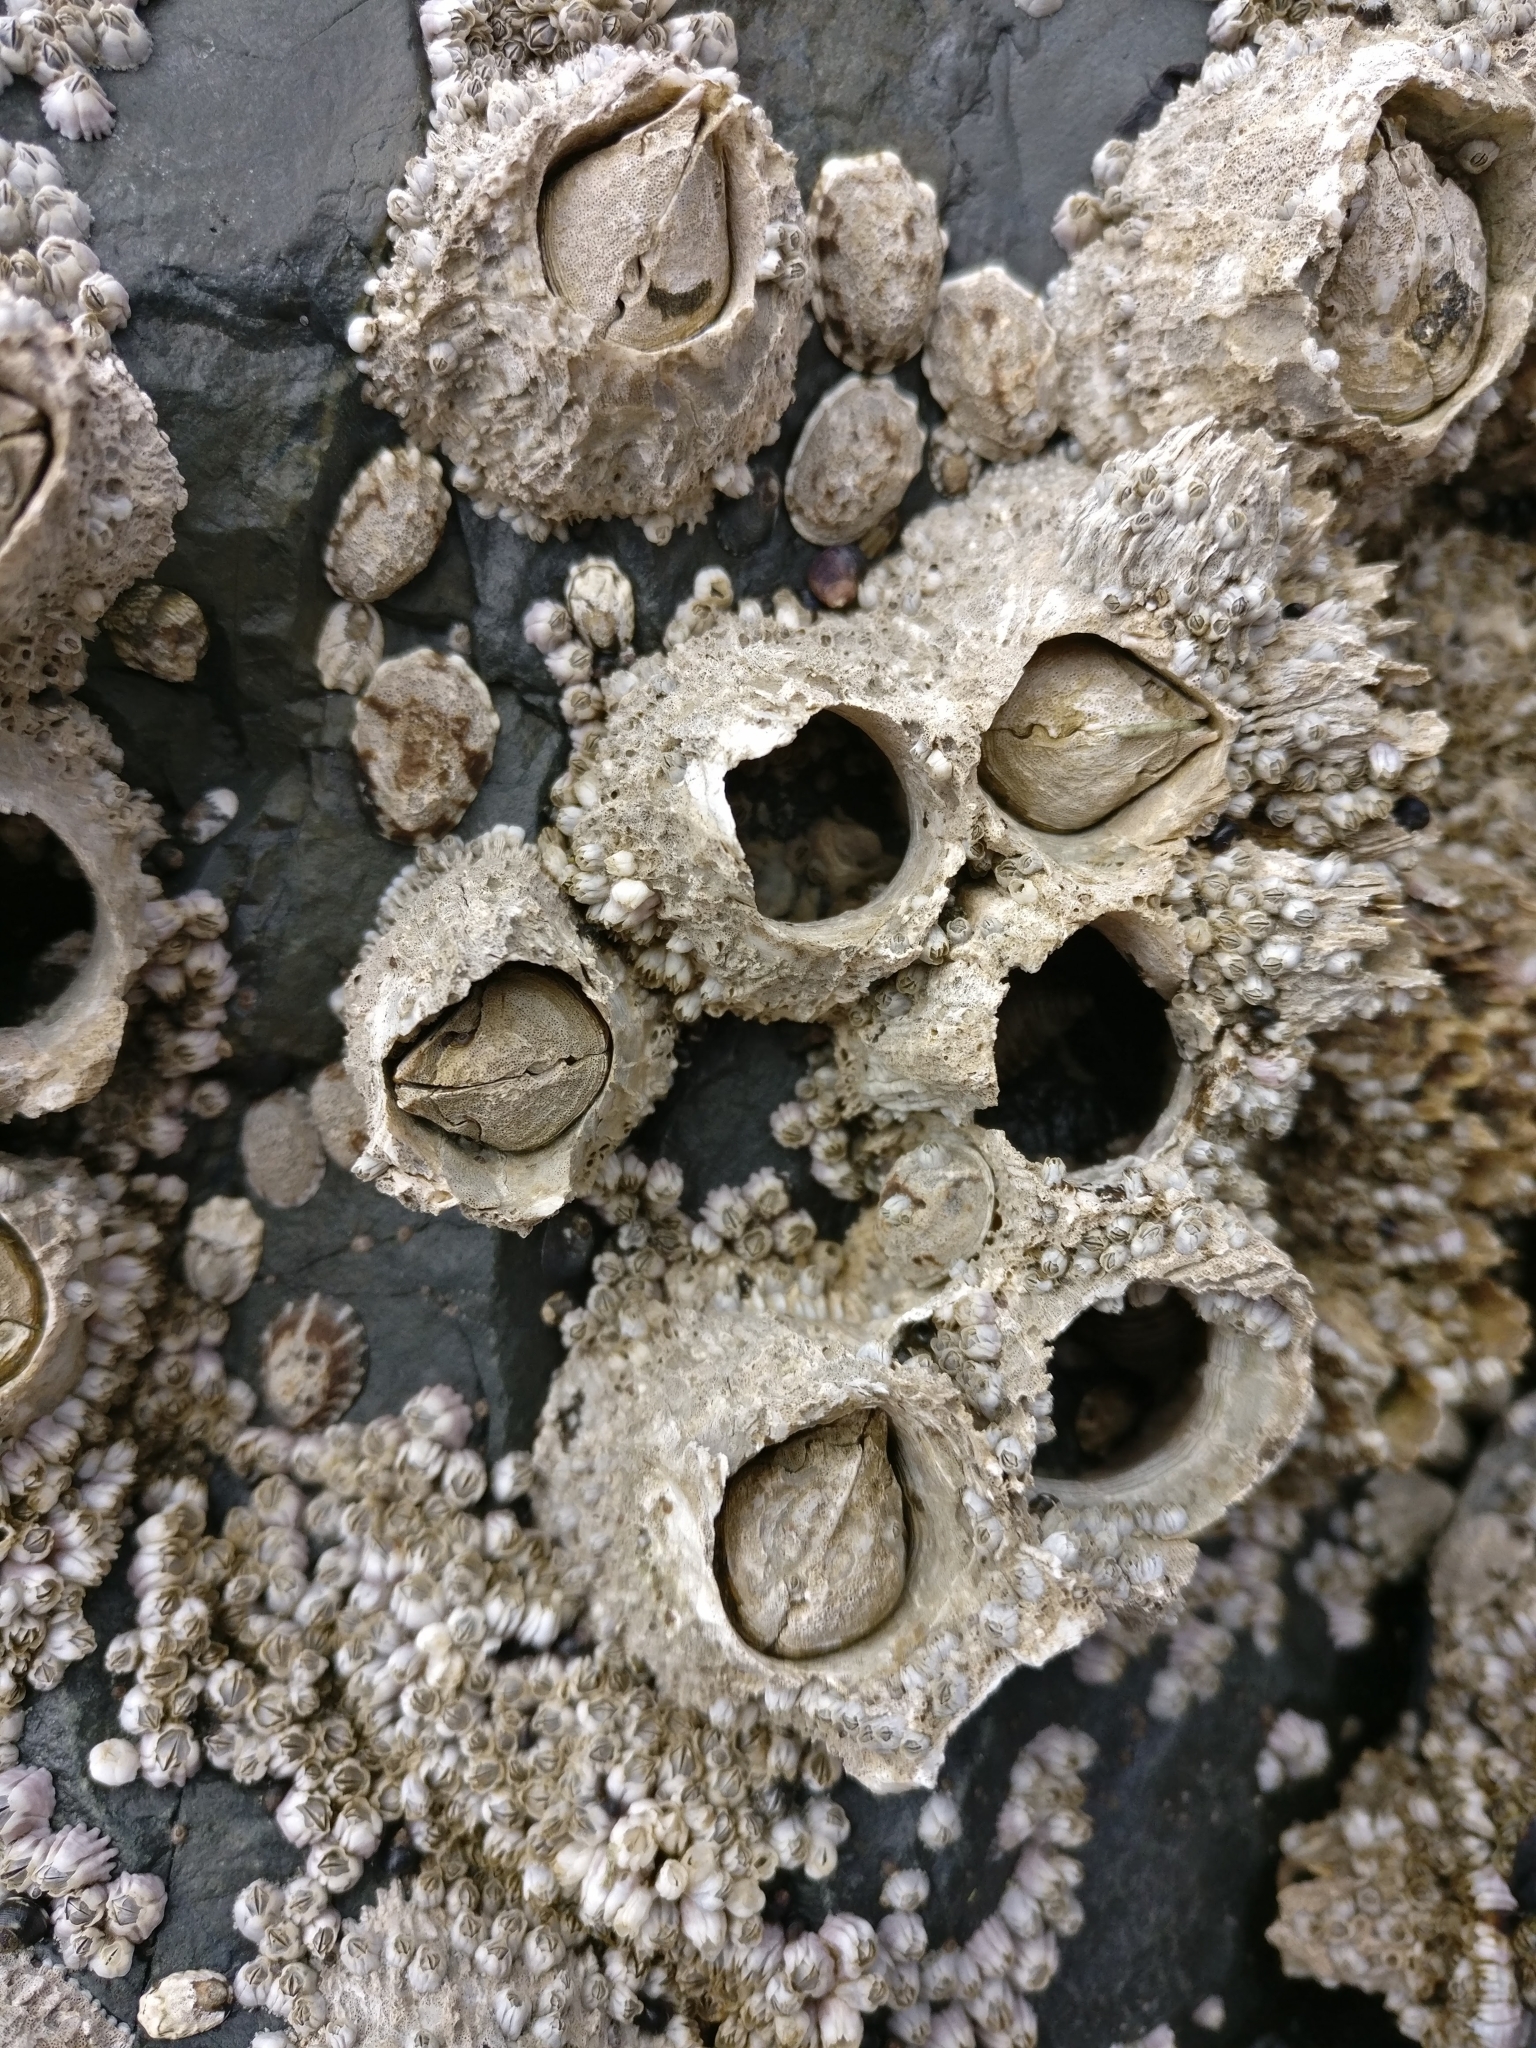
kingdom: Animalia
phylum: Arthropoda
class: Maxillopoda
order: Sessilia
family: Archaeobalanidae
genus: Semibalanus
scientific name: Semibalanus cariosus
